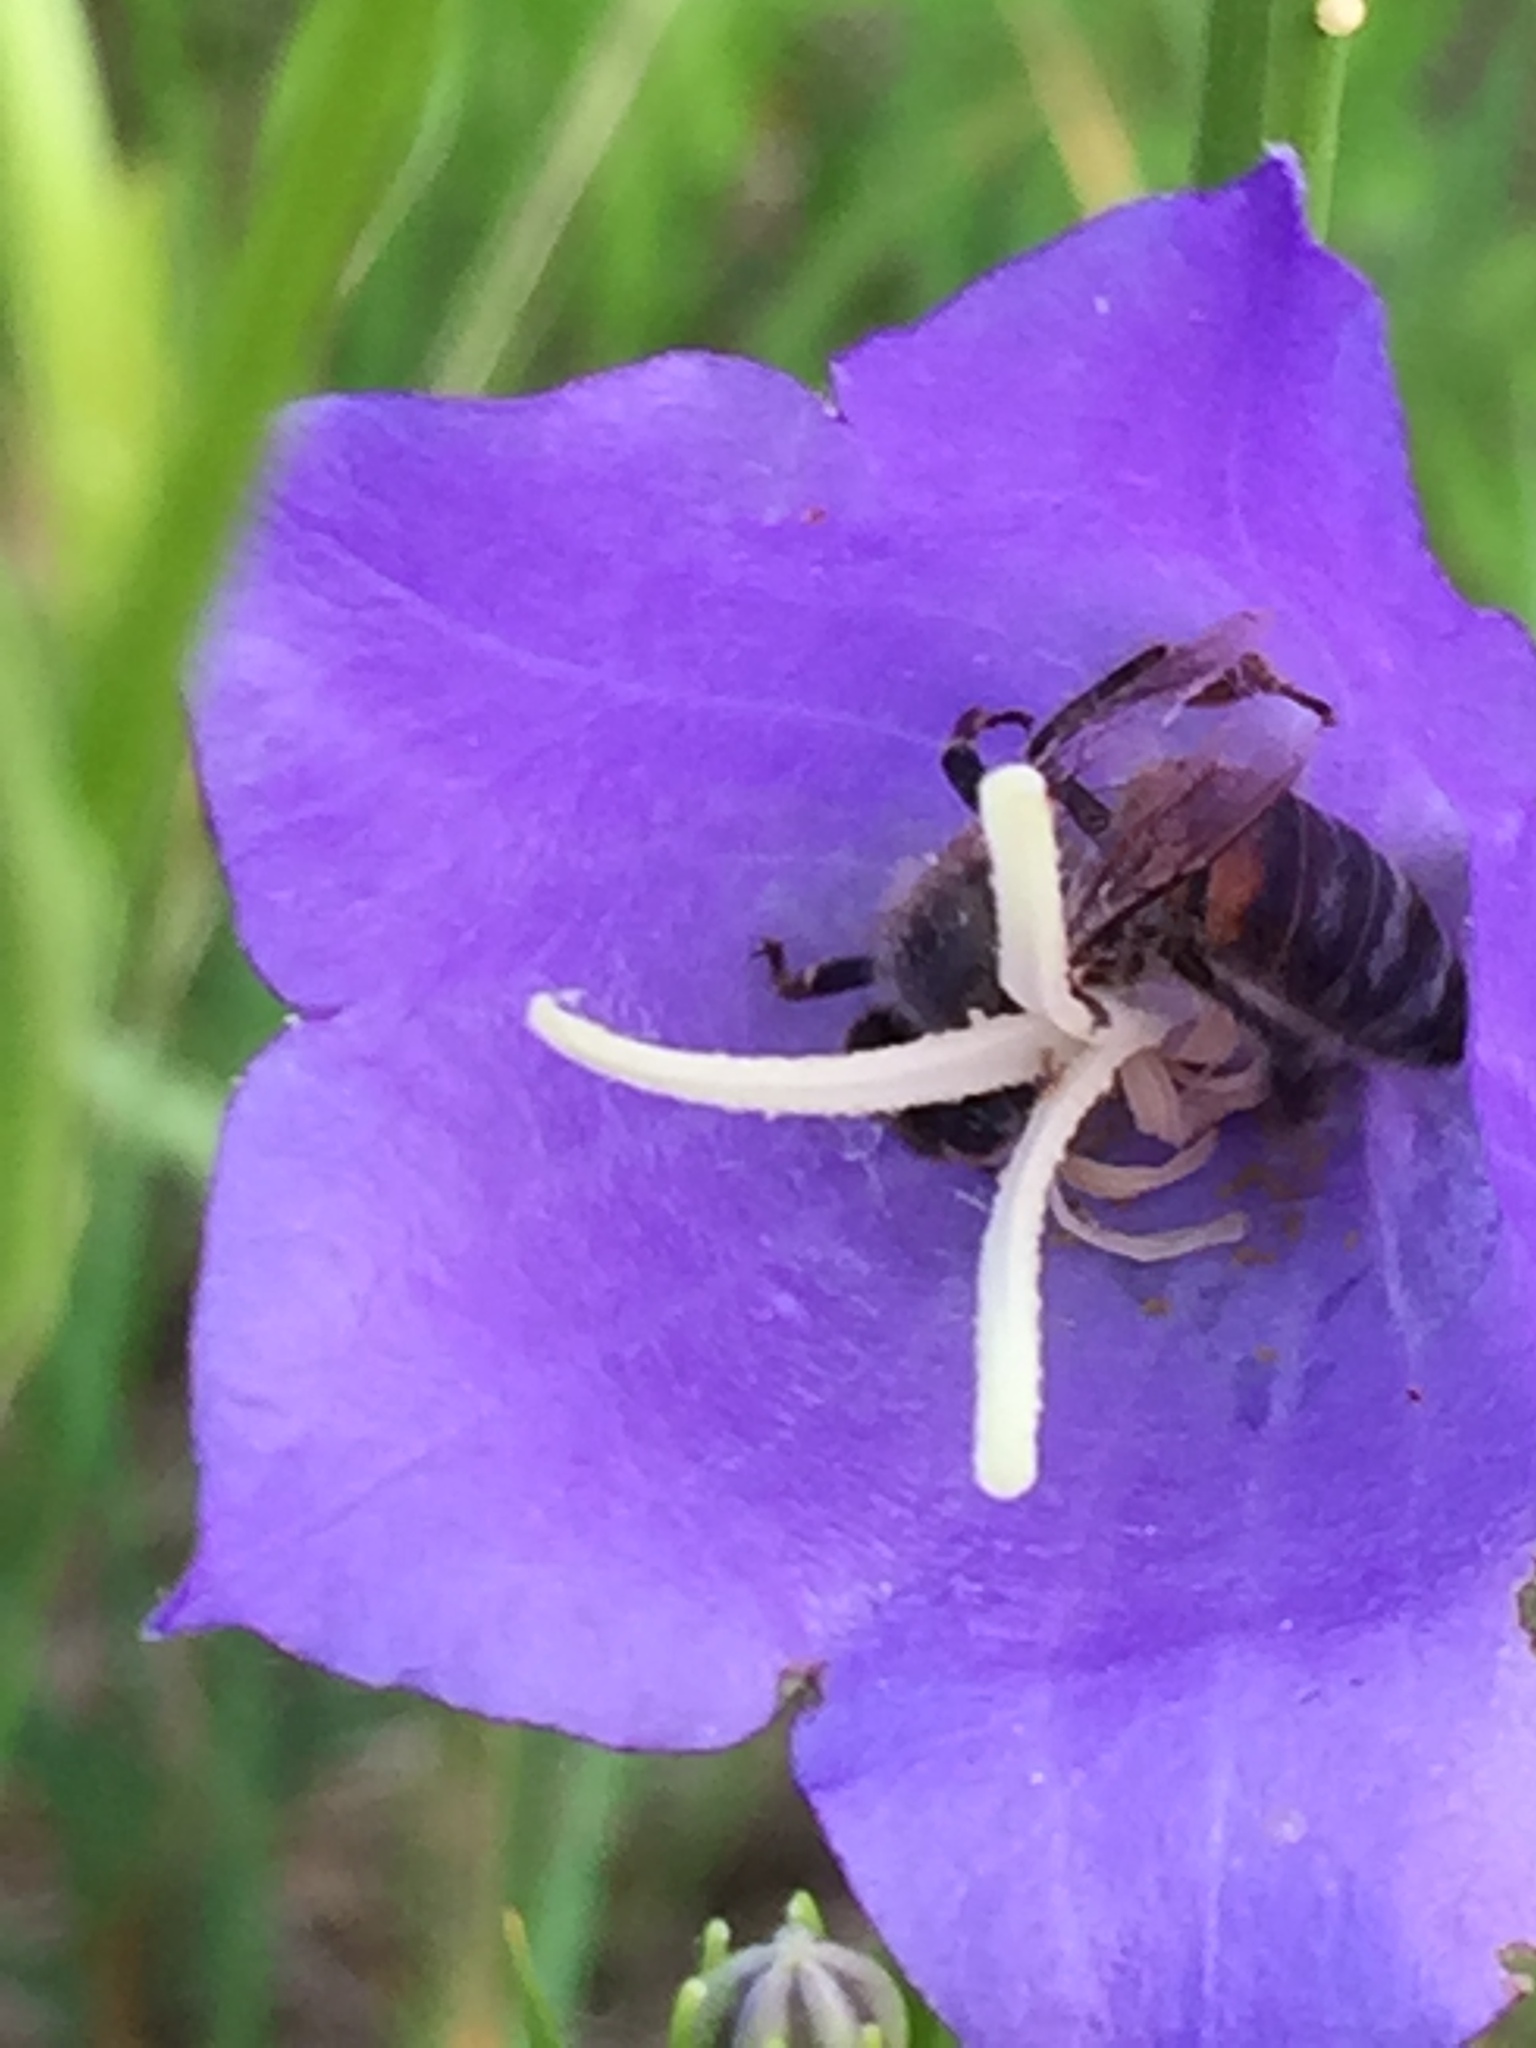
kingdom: Animalia
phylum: Arthropoda
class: Insecta
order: Hymenoptera
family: Apidae
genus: Apis
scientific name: Apis mellifera
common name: Honey bee
